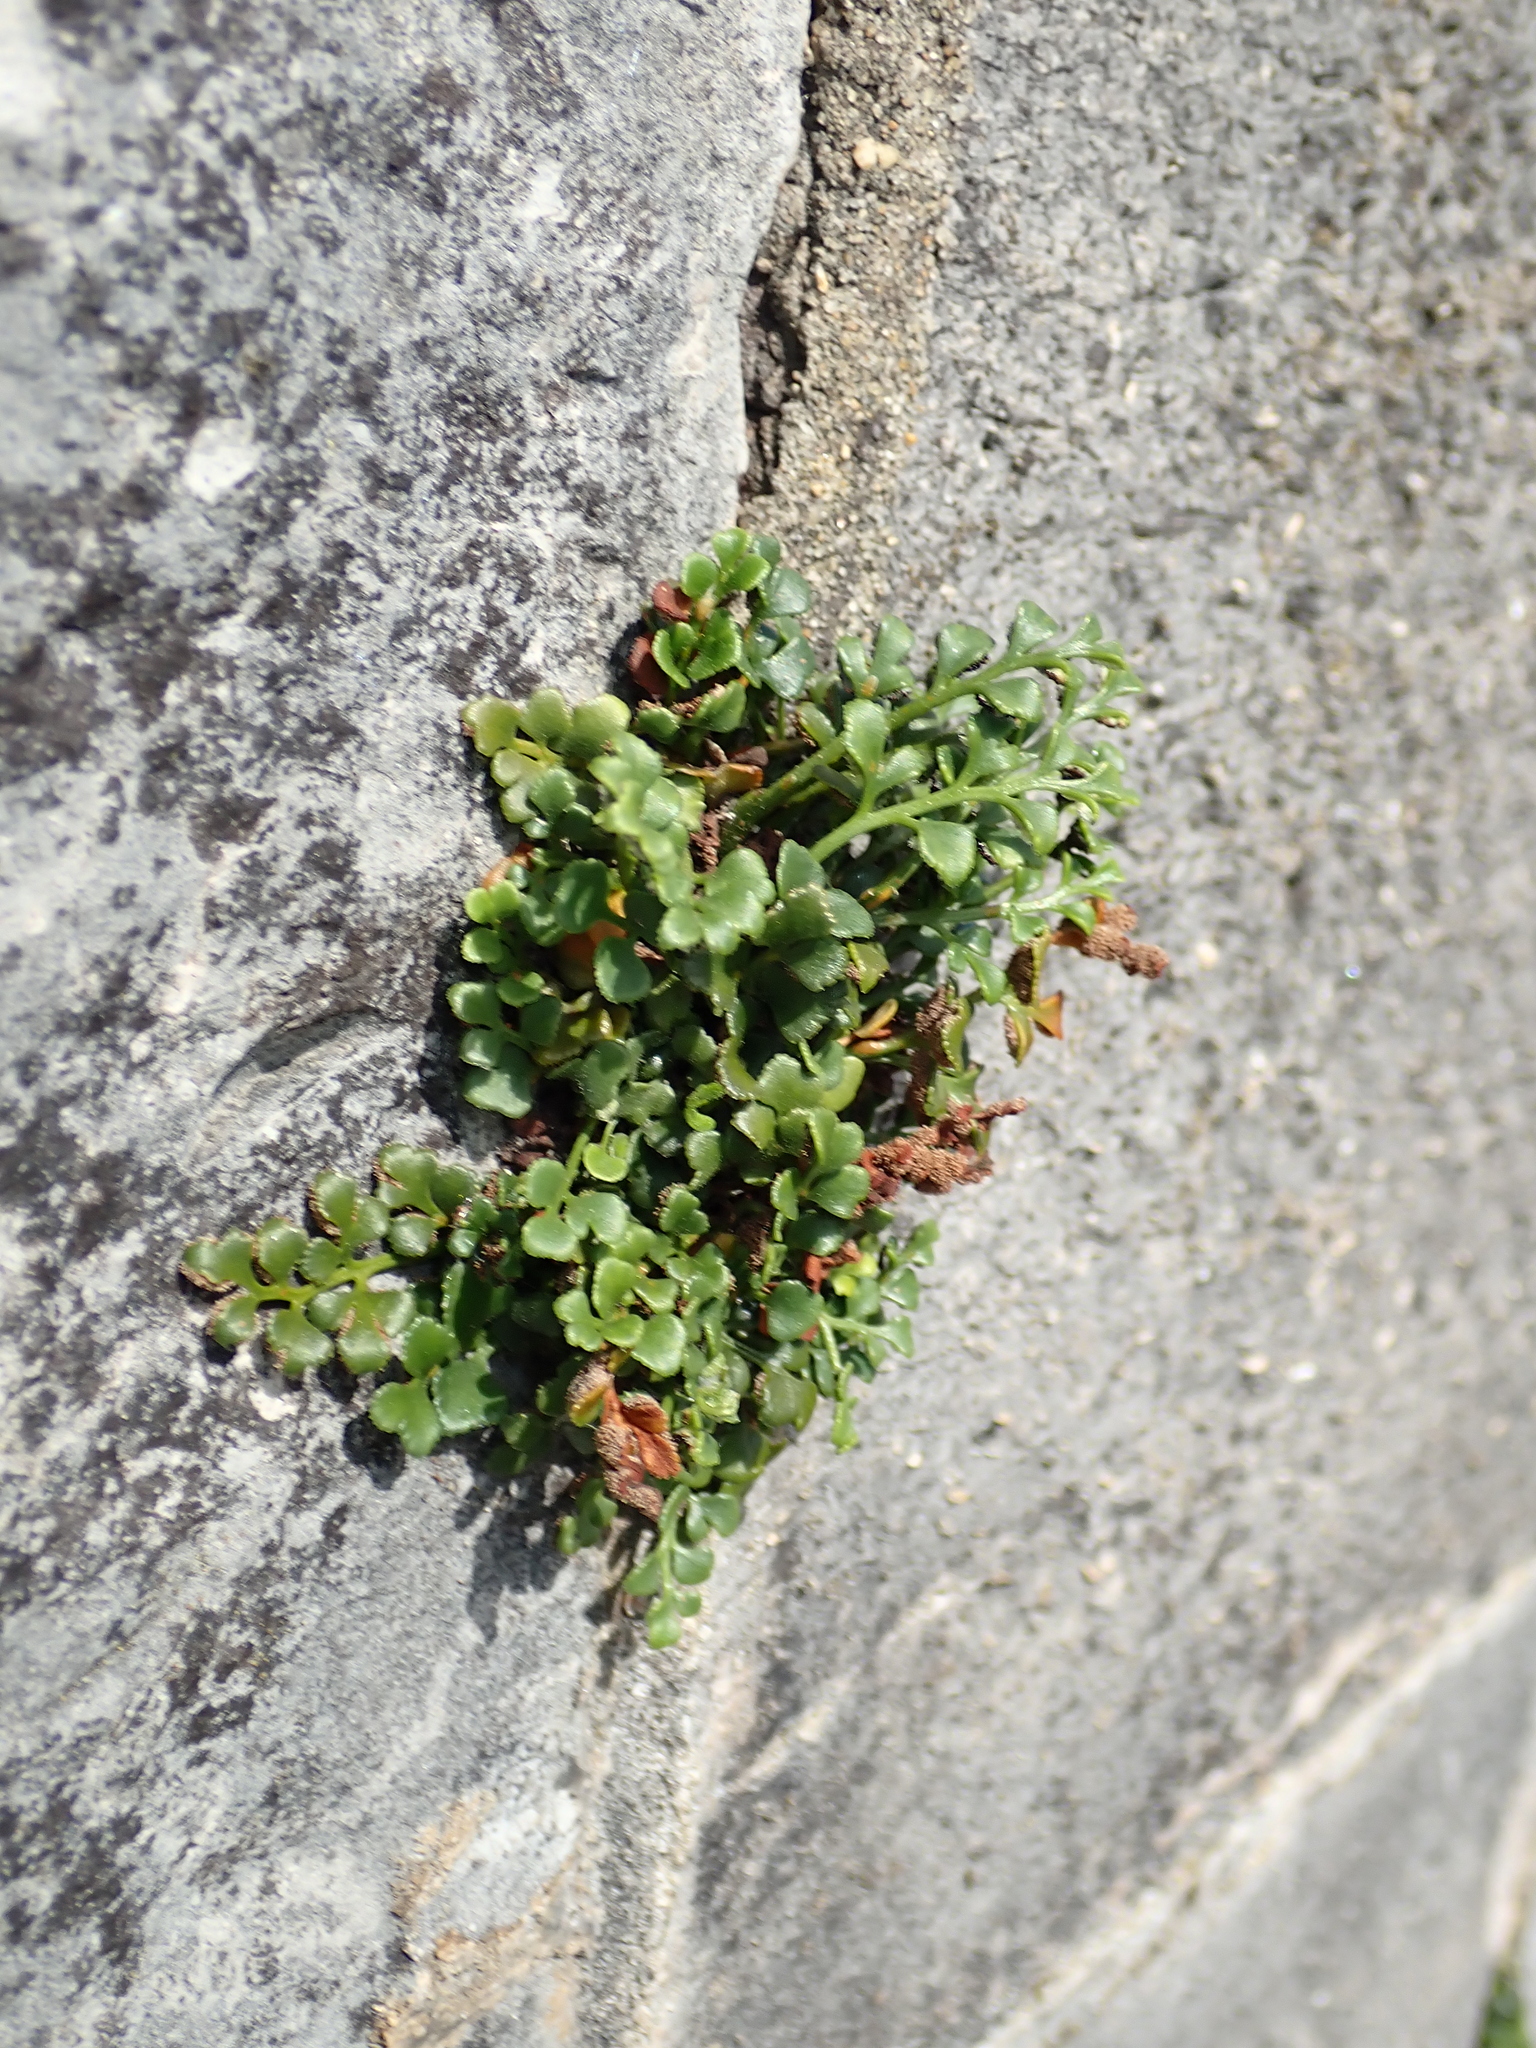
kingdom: Plantae
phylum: Tracheophyta
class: Polypodiopsida
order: Polypodiales
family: Aspleniaceae
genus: Asplenium
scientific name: Asplenium ruta-muraria
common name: Wall-rue
